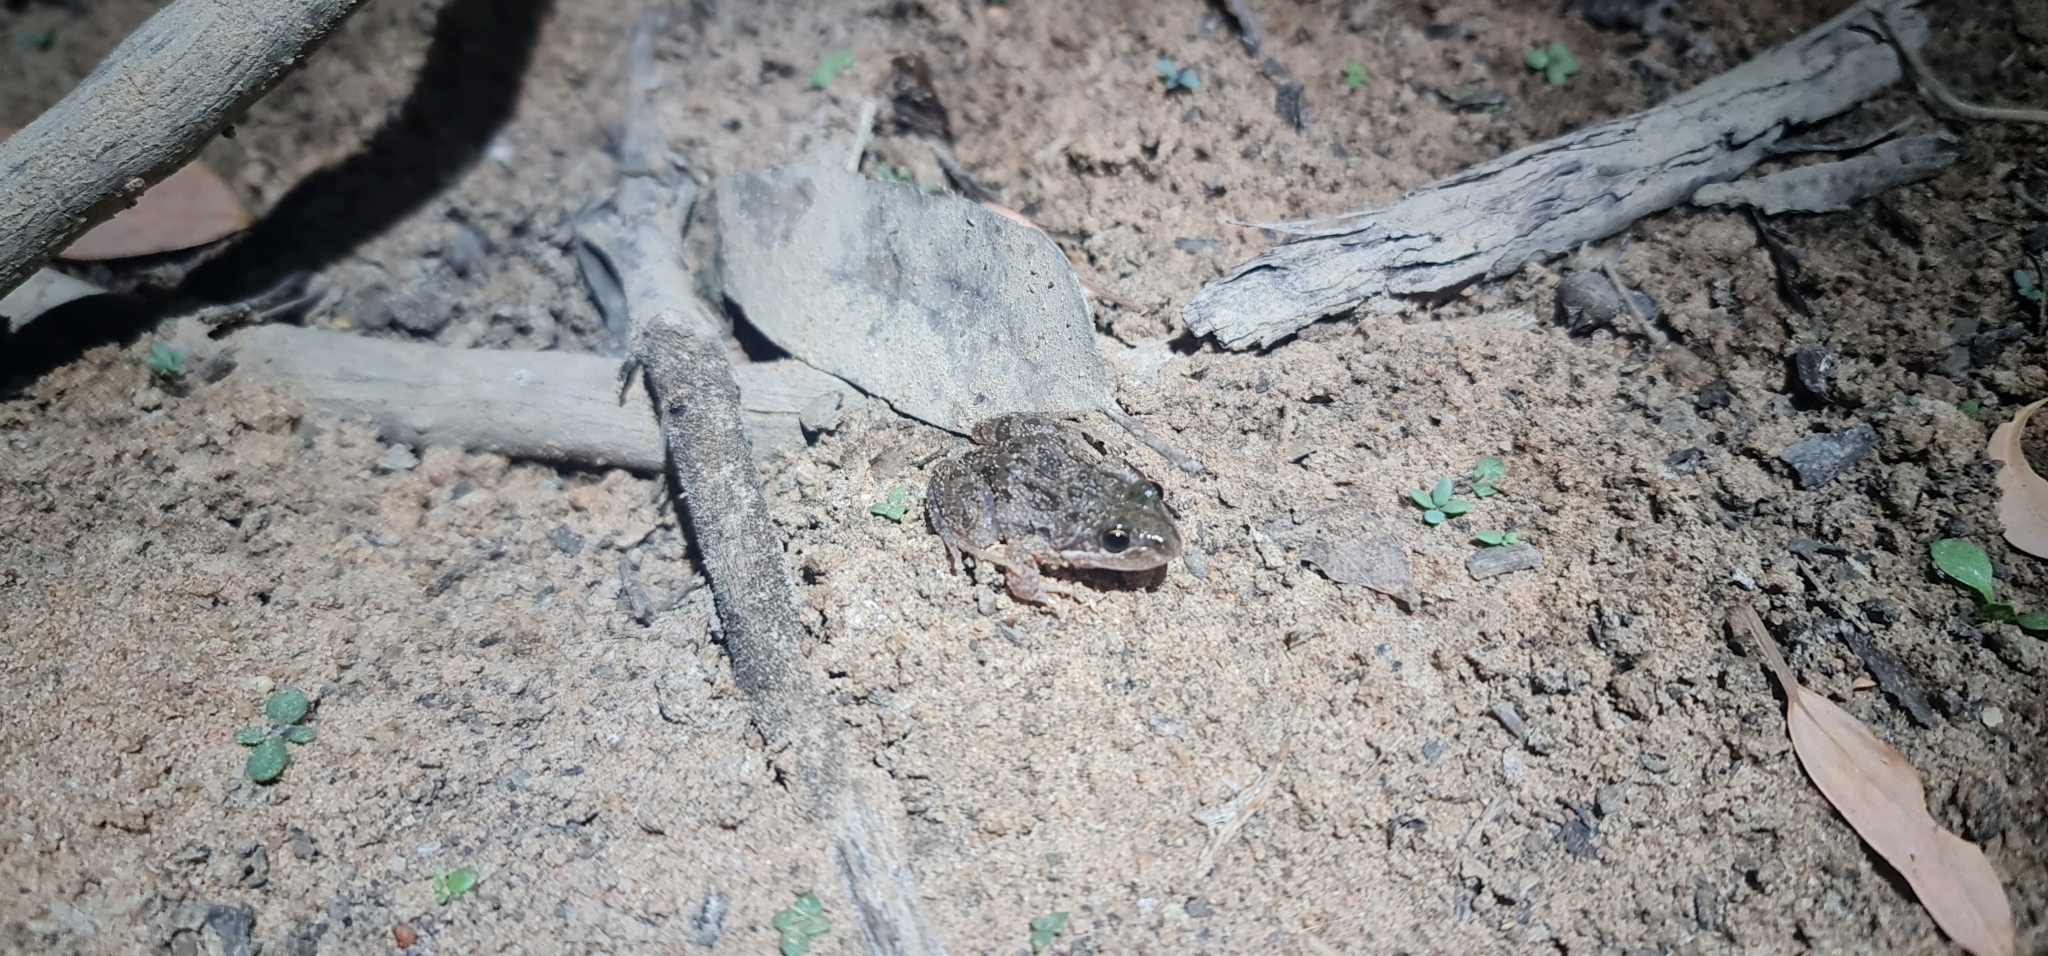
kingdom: Animalia
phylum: Chordata
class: Amphibia
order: Anura
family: Limnodynastidae
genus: Limnodynastes
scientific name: Limnodynastes tasmaniensis
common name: Spotted marsh frog
